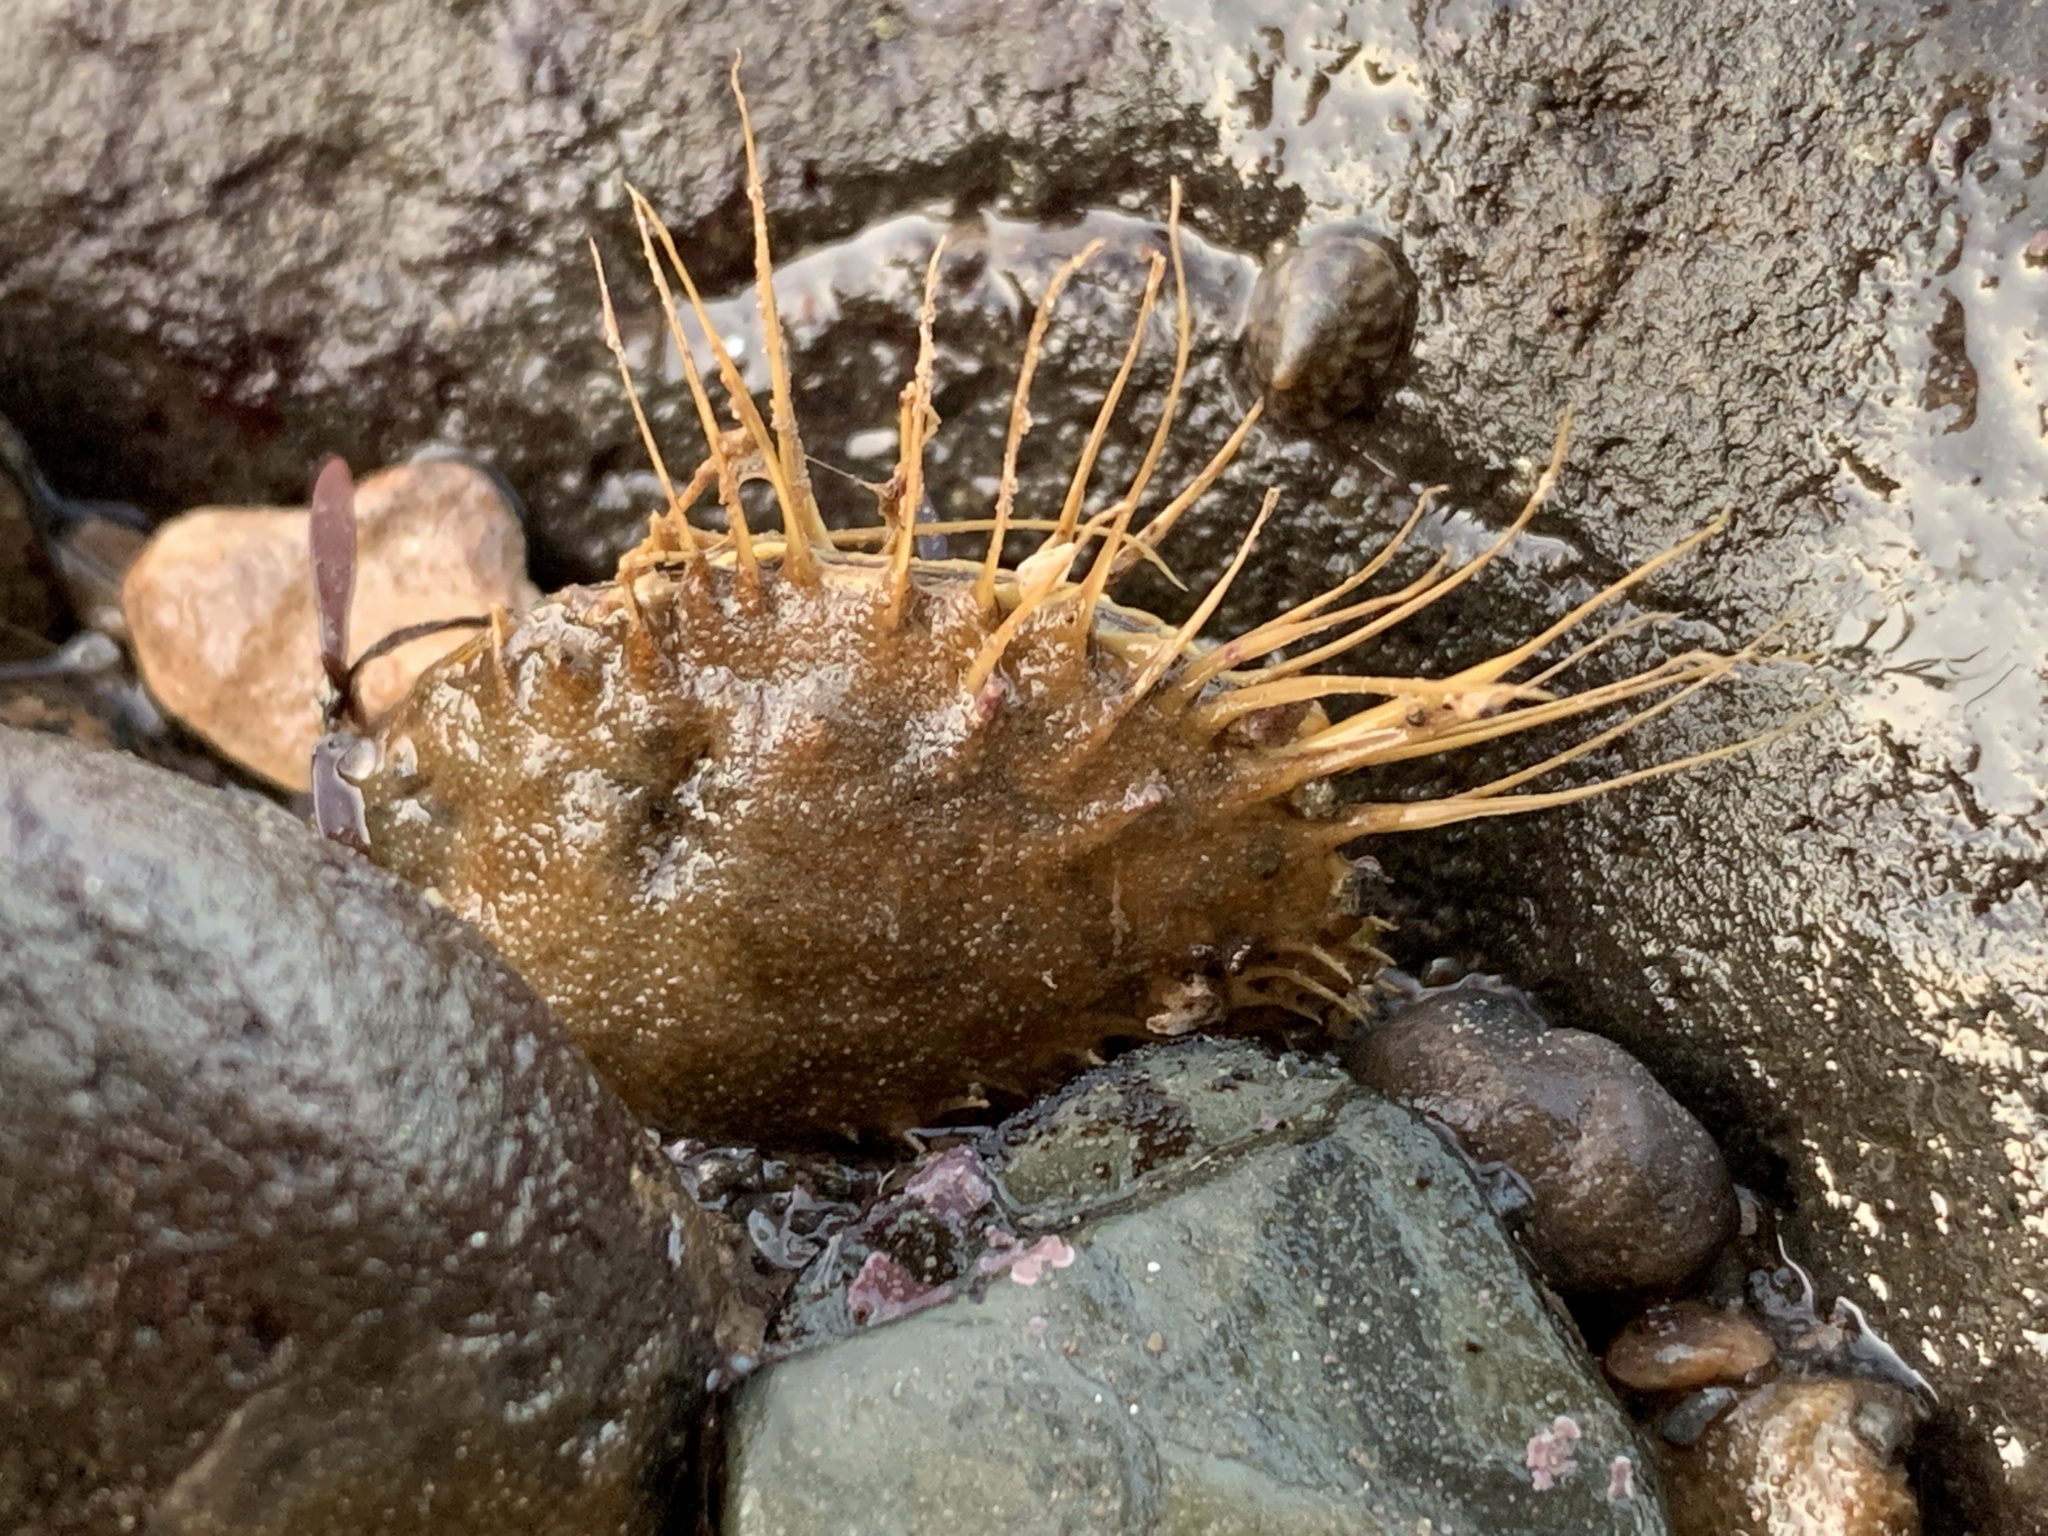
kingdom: Animalia
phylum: Mollusca
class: Bivalvia
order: Mytilida
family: Mytilidae
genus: Modiolus
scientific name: Modiolus modiolus
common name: Horse-mussel
